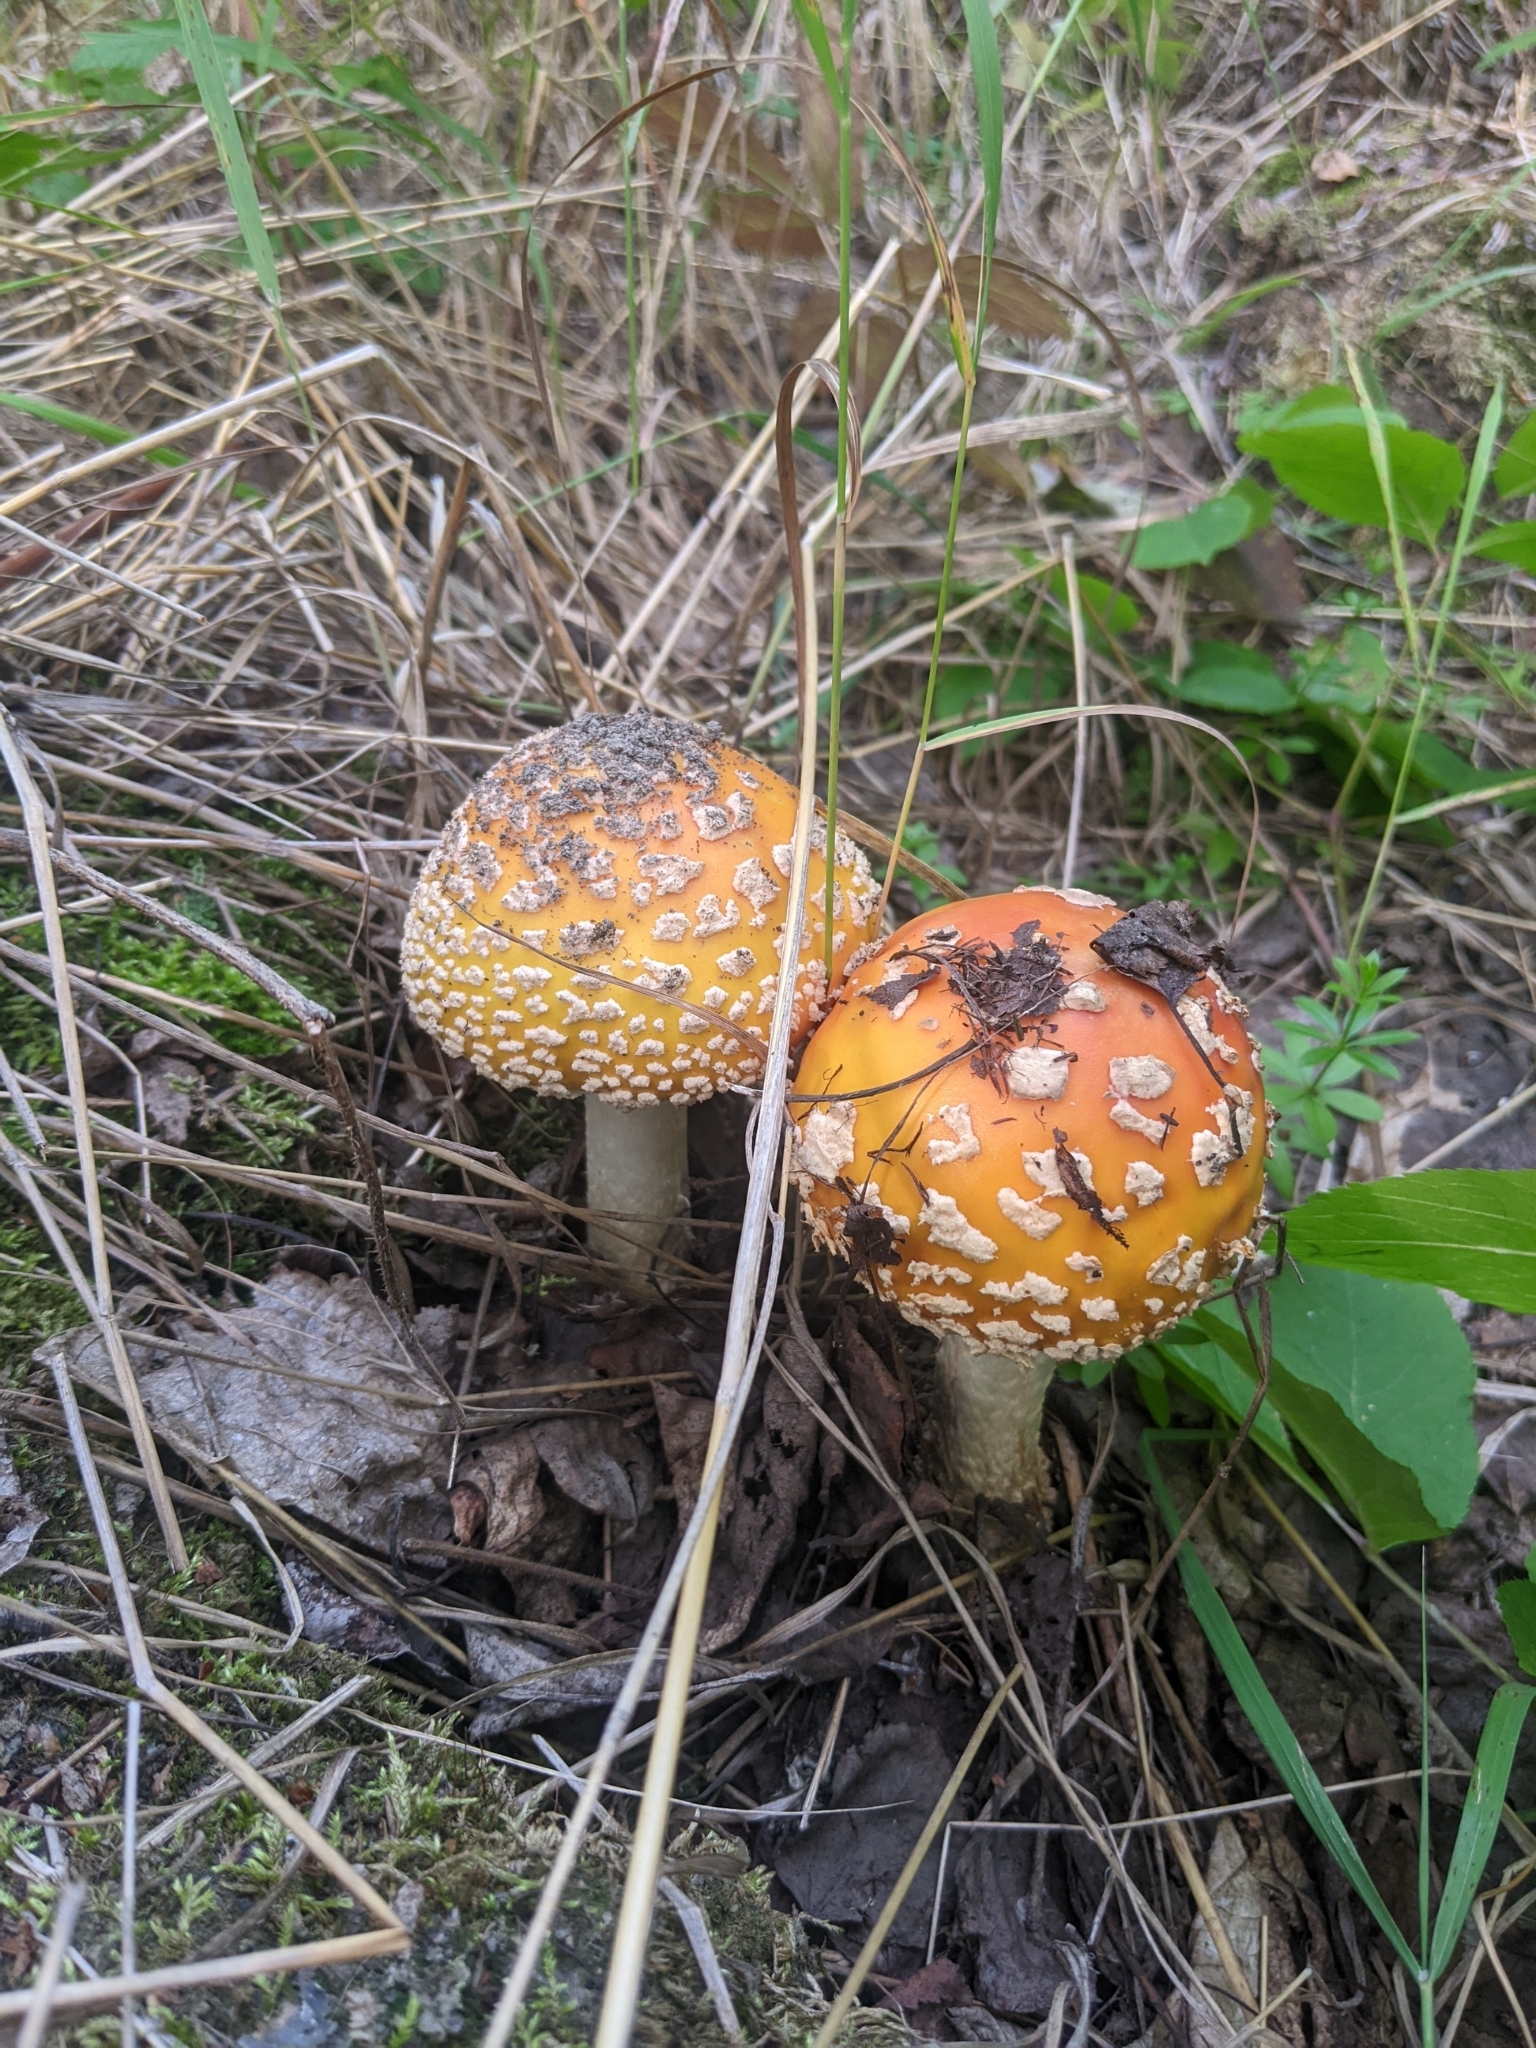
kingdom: Fungi
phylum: Basidiomycota
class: Agaricomycetes
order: Agaricales
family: Amanitaceae
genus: Amanita
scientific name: Amanita muscaria
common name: Fly agaric
